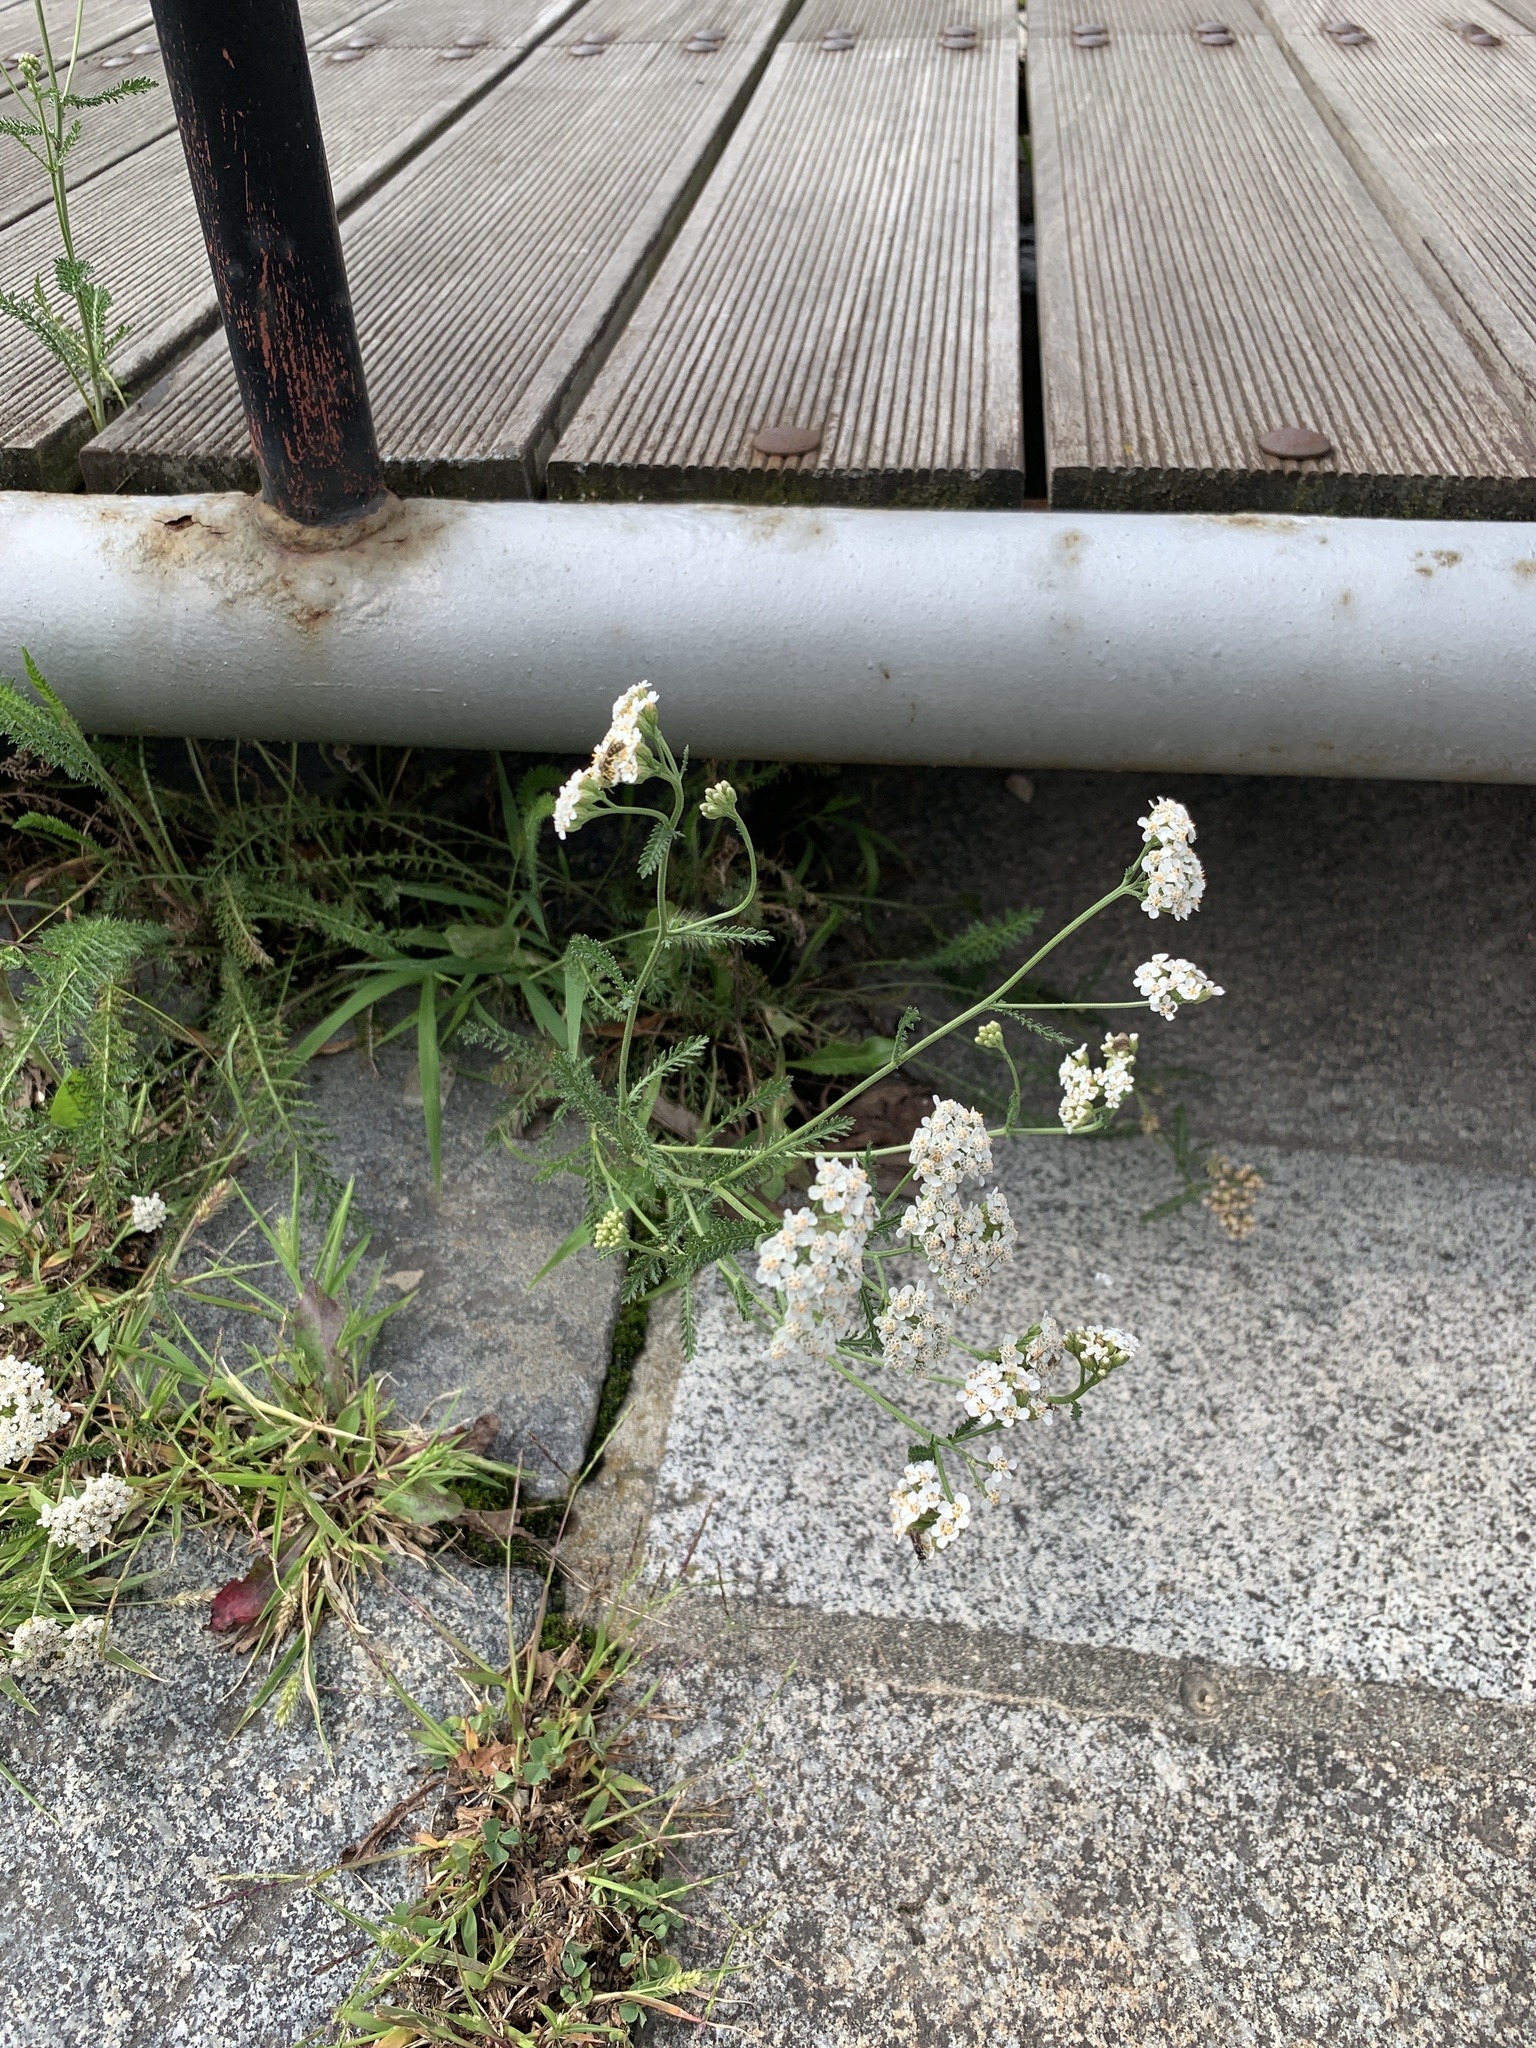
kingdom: Plantae
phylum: Tracheophyta
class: Magnoliopsida
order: Asterales
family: Asteraceae
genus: Achillea
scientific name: Achillea millefolium
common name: Yarrow
